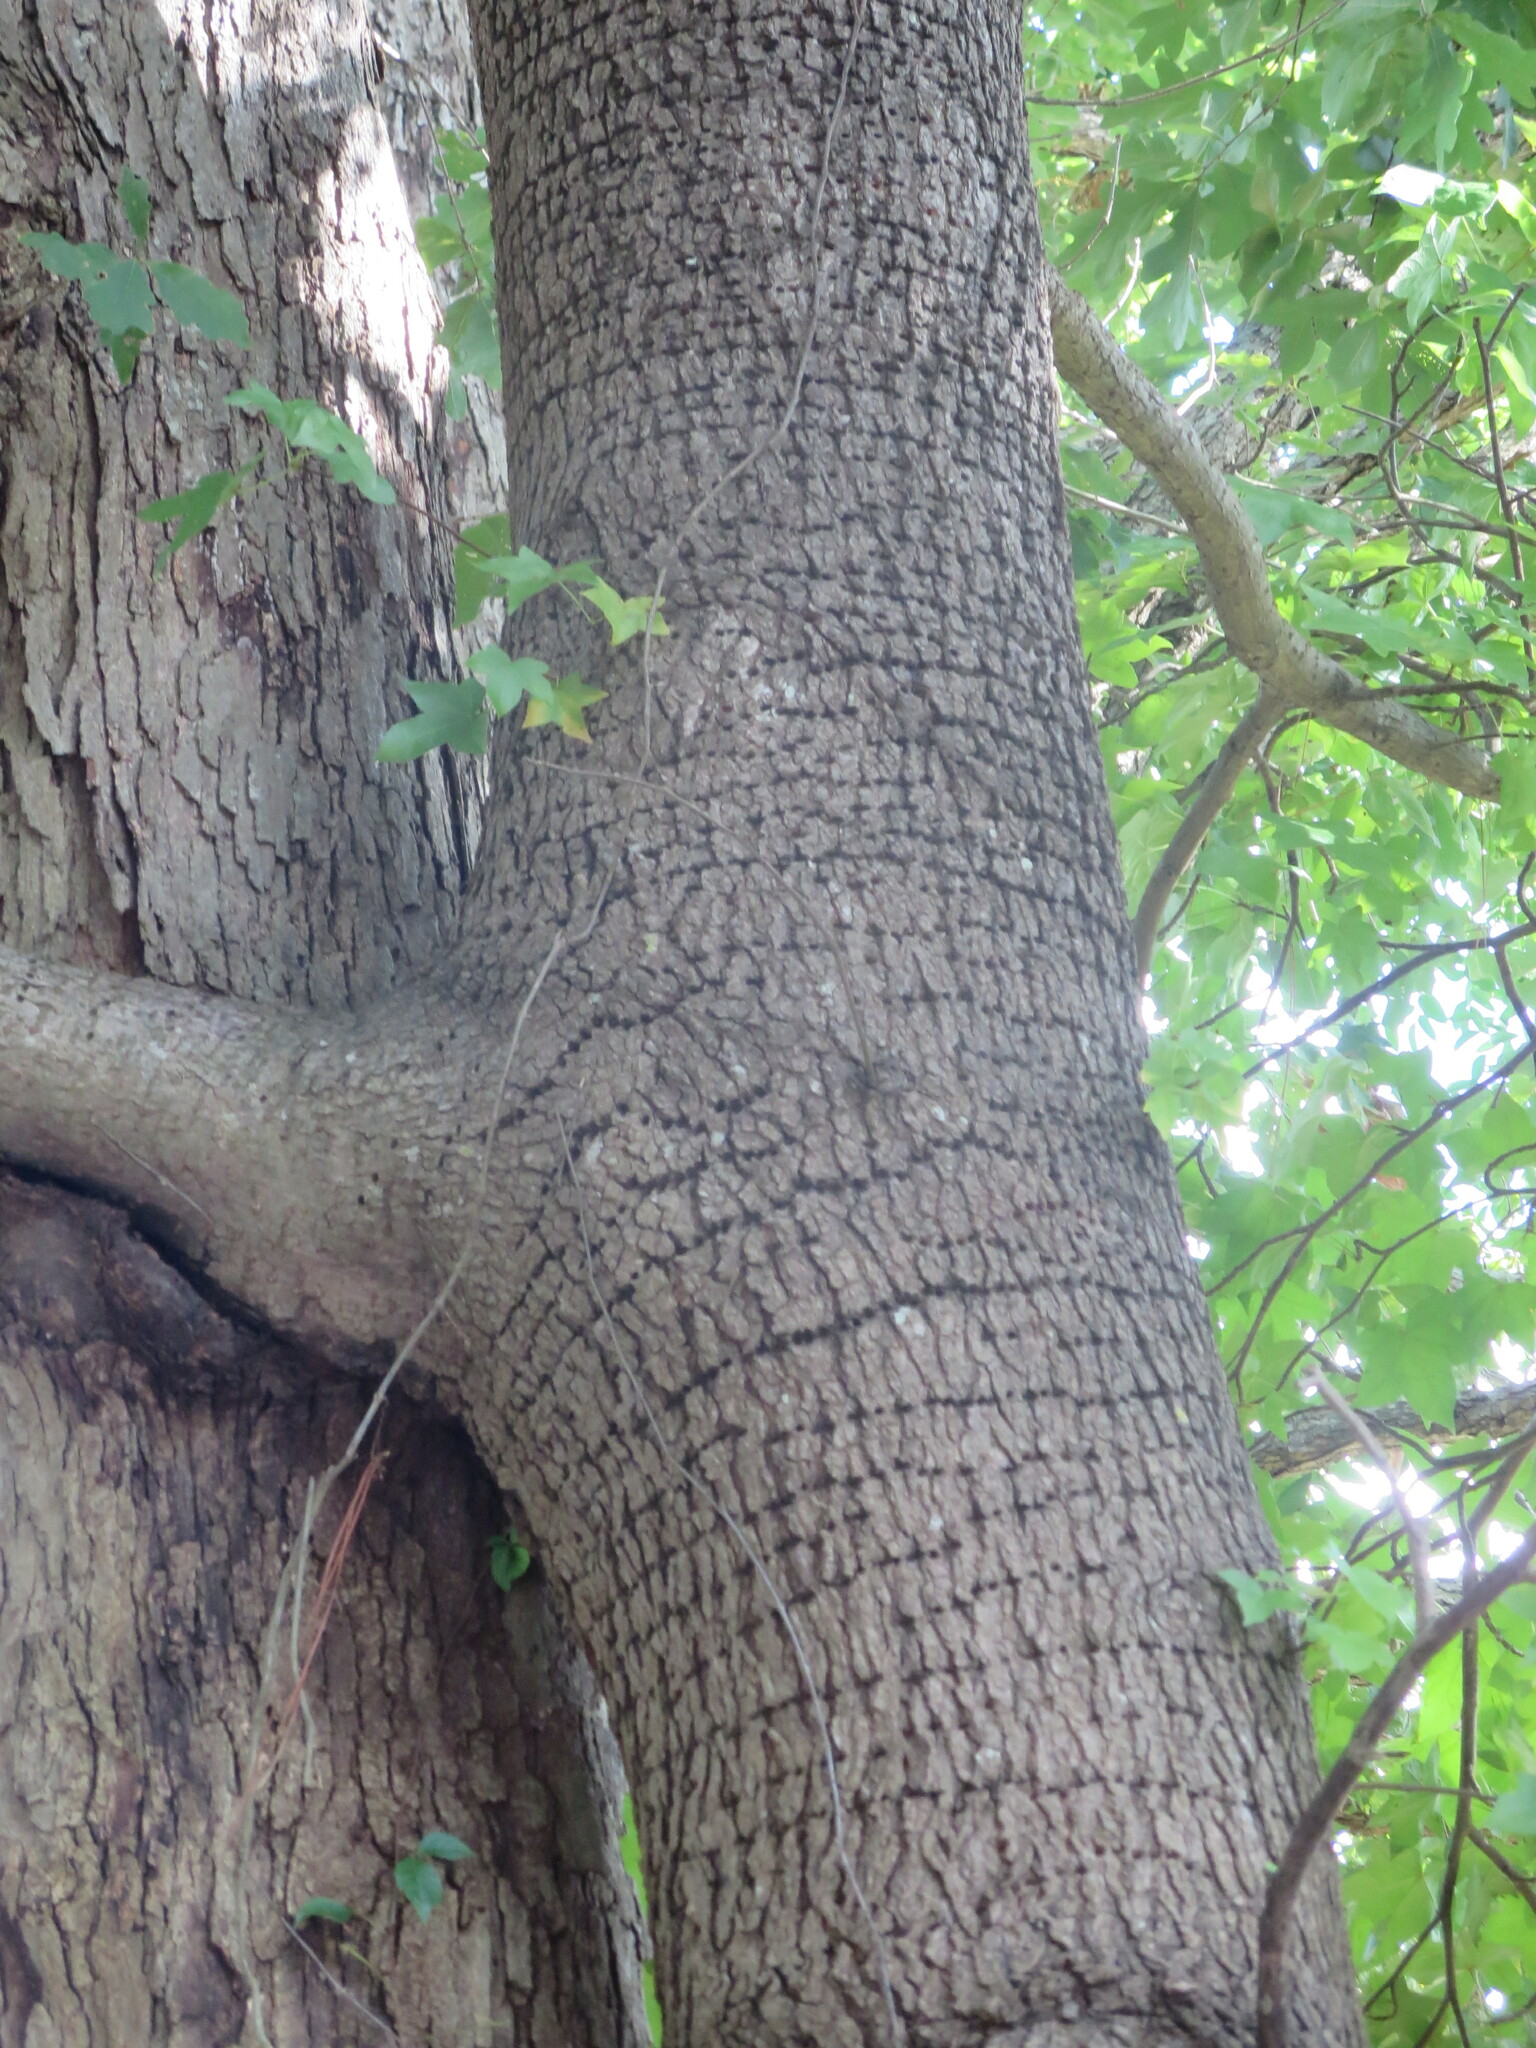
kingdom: Plantae
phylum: Tracheophyta
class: Magnoliopsida
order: Saxifragales
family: Altingiaceae
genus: Liquidambar
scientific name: Liquidambar styraciflua
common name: Sweet gum
